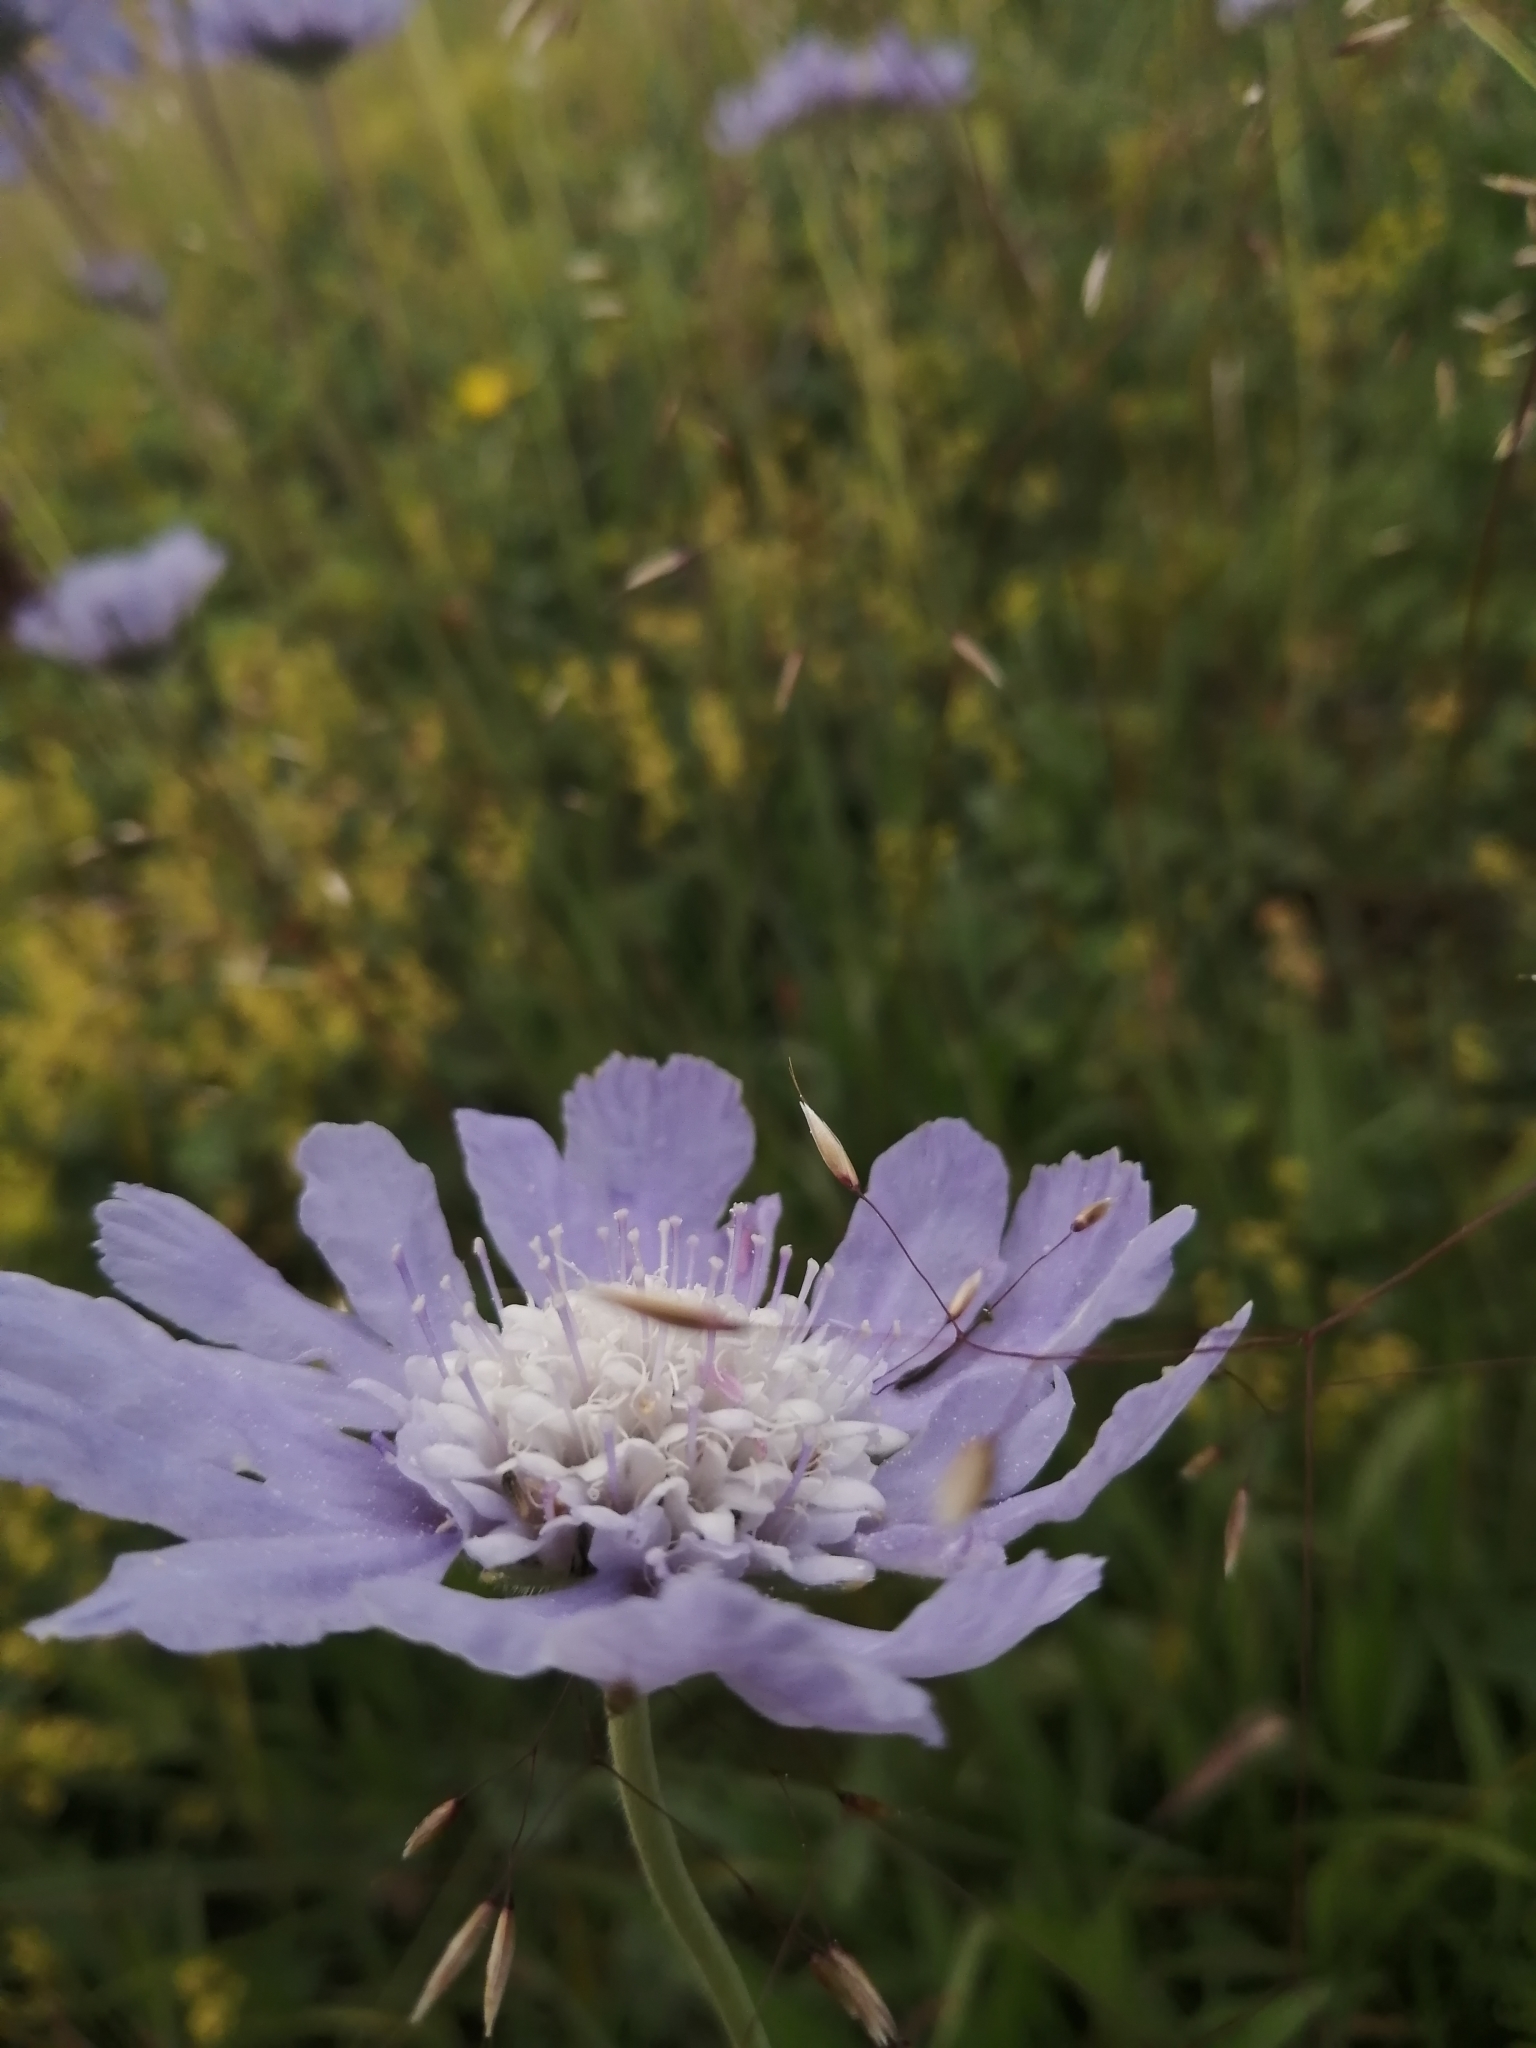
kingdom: Plantae
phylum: Tracheophyta
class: Magnoliopsida
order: Dipsacales
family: Caprifoliaceae
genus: Lomelosia
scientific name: Lomelosia caucasica
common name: Pincushion-flower
